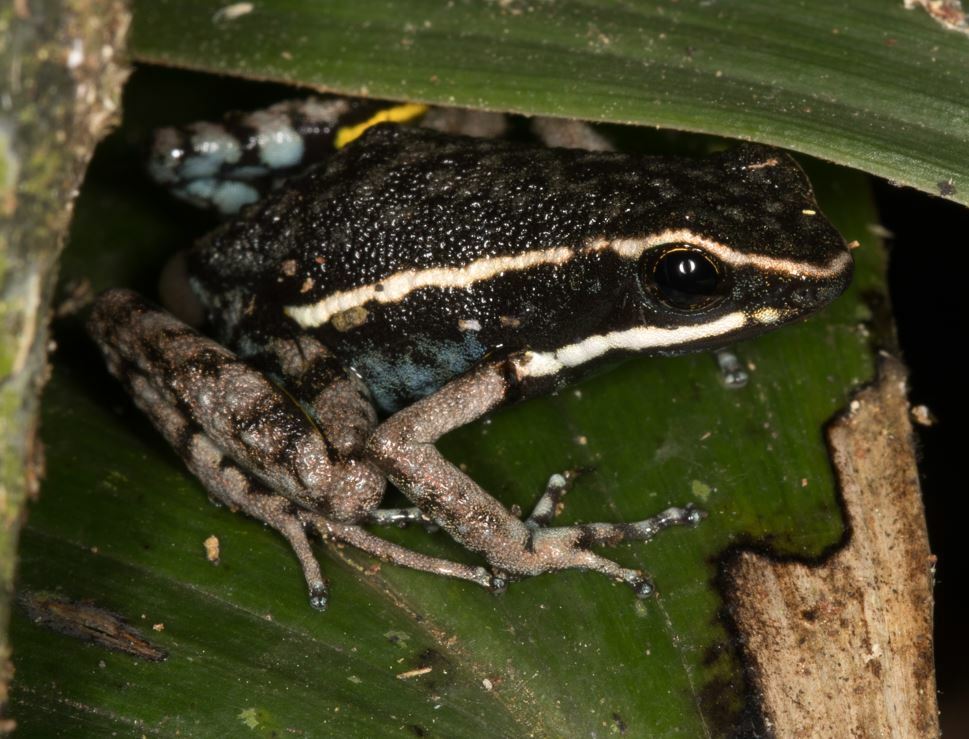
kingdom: Animalia
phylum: Chordata
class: Amphibia
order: Anura
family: Dendrobatidae
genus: Ameerega
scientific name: Ameerega hahneli
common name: Yurimaguas pioson frog
